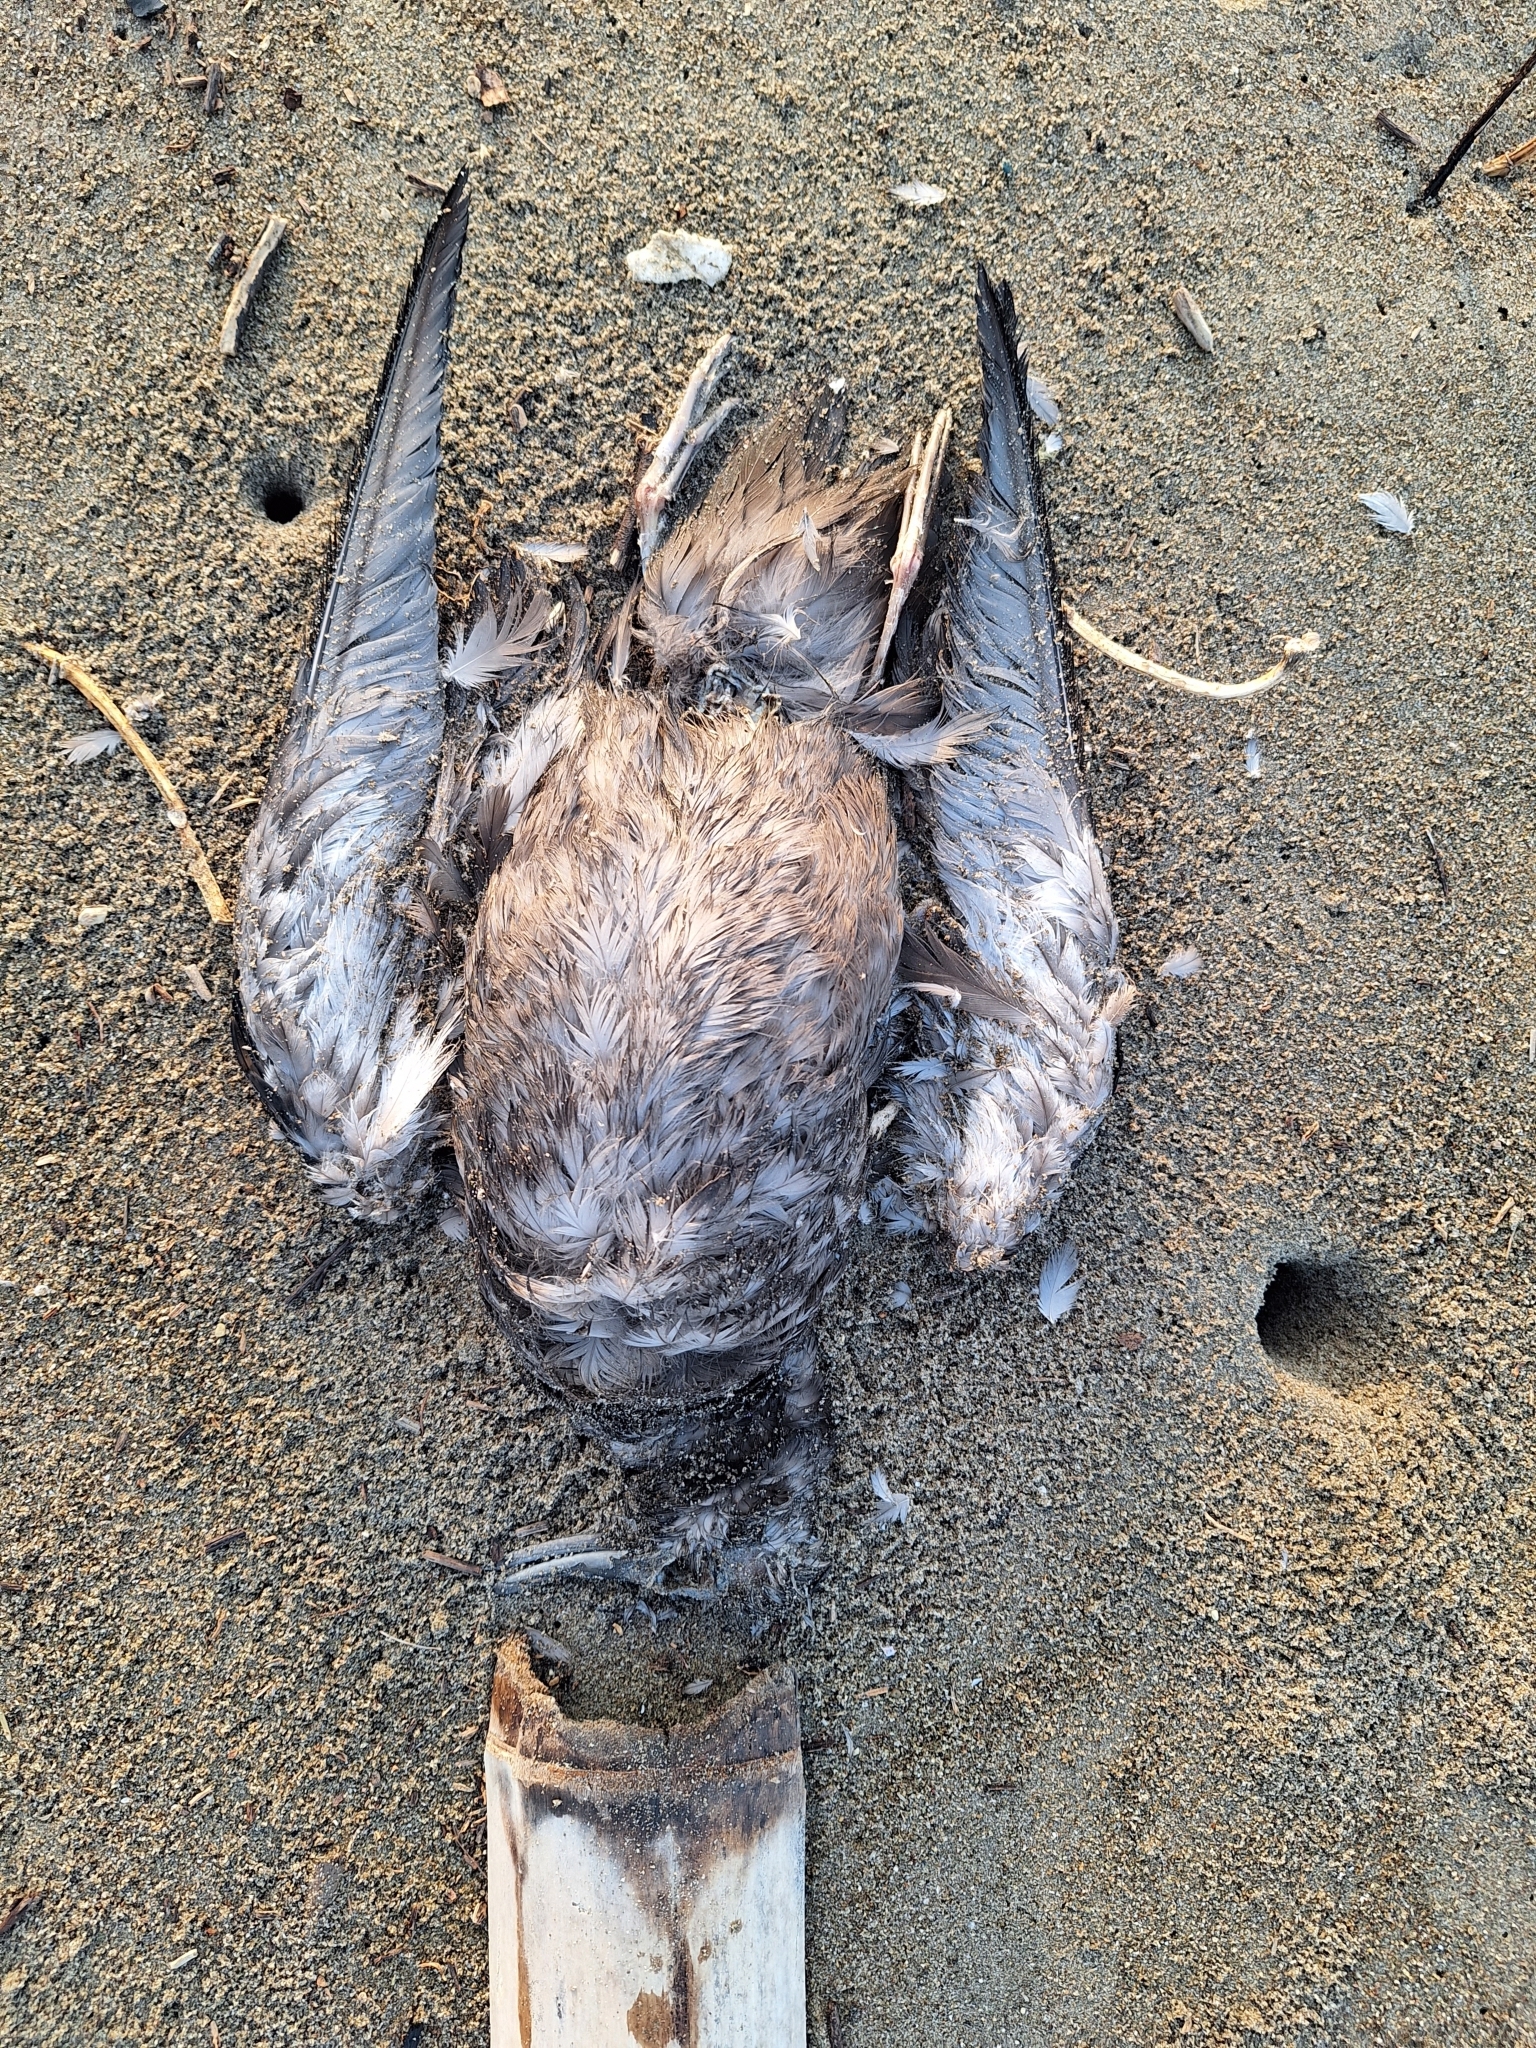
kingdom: Animalia
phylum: Chordata
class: Aves
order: Procellariiformes
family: Procellariidae
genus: Puffinus
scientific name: Puffinus griseus
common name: Sooty shearwater
